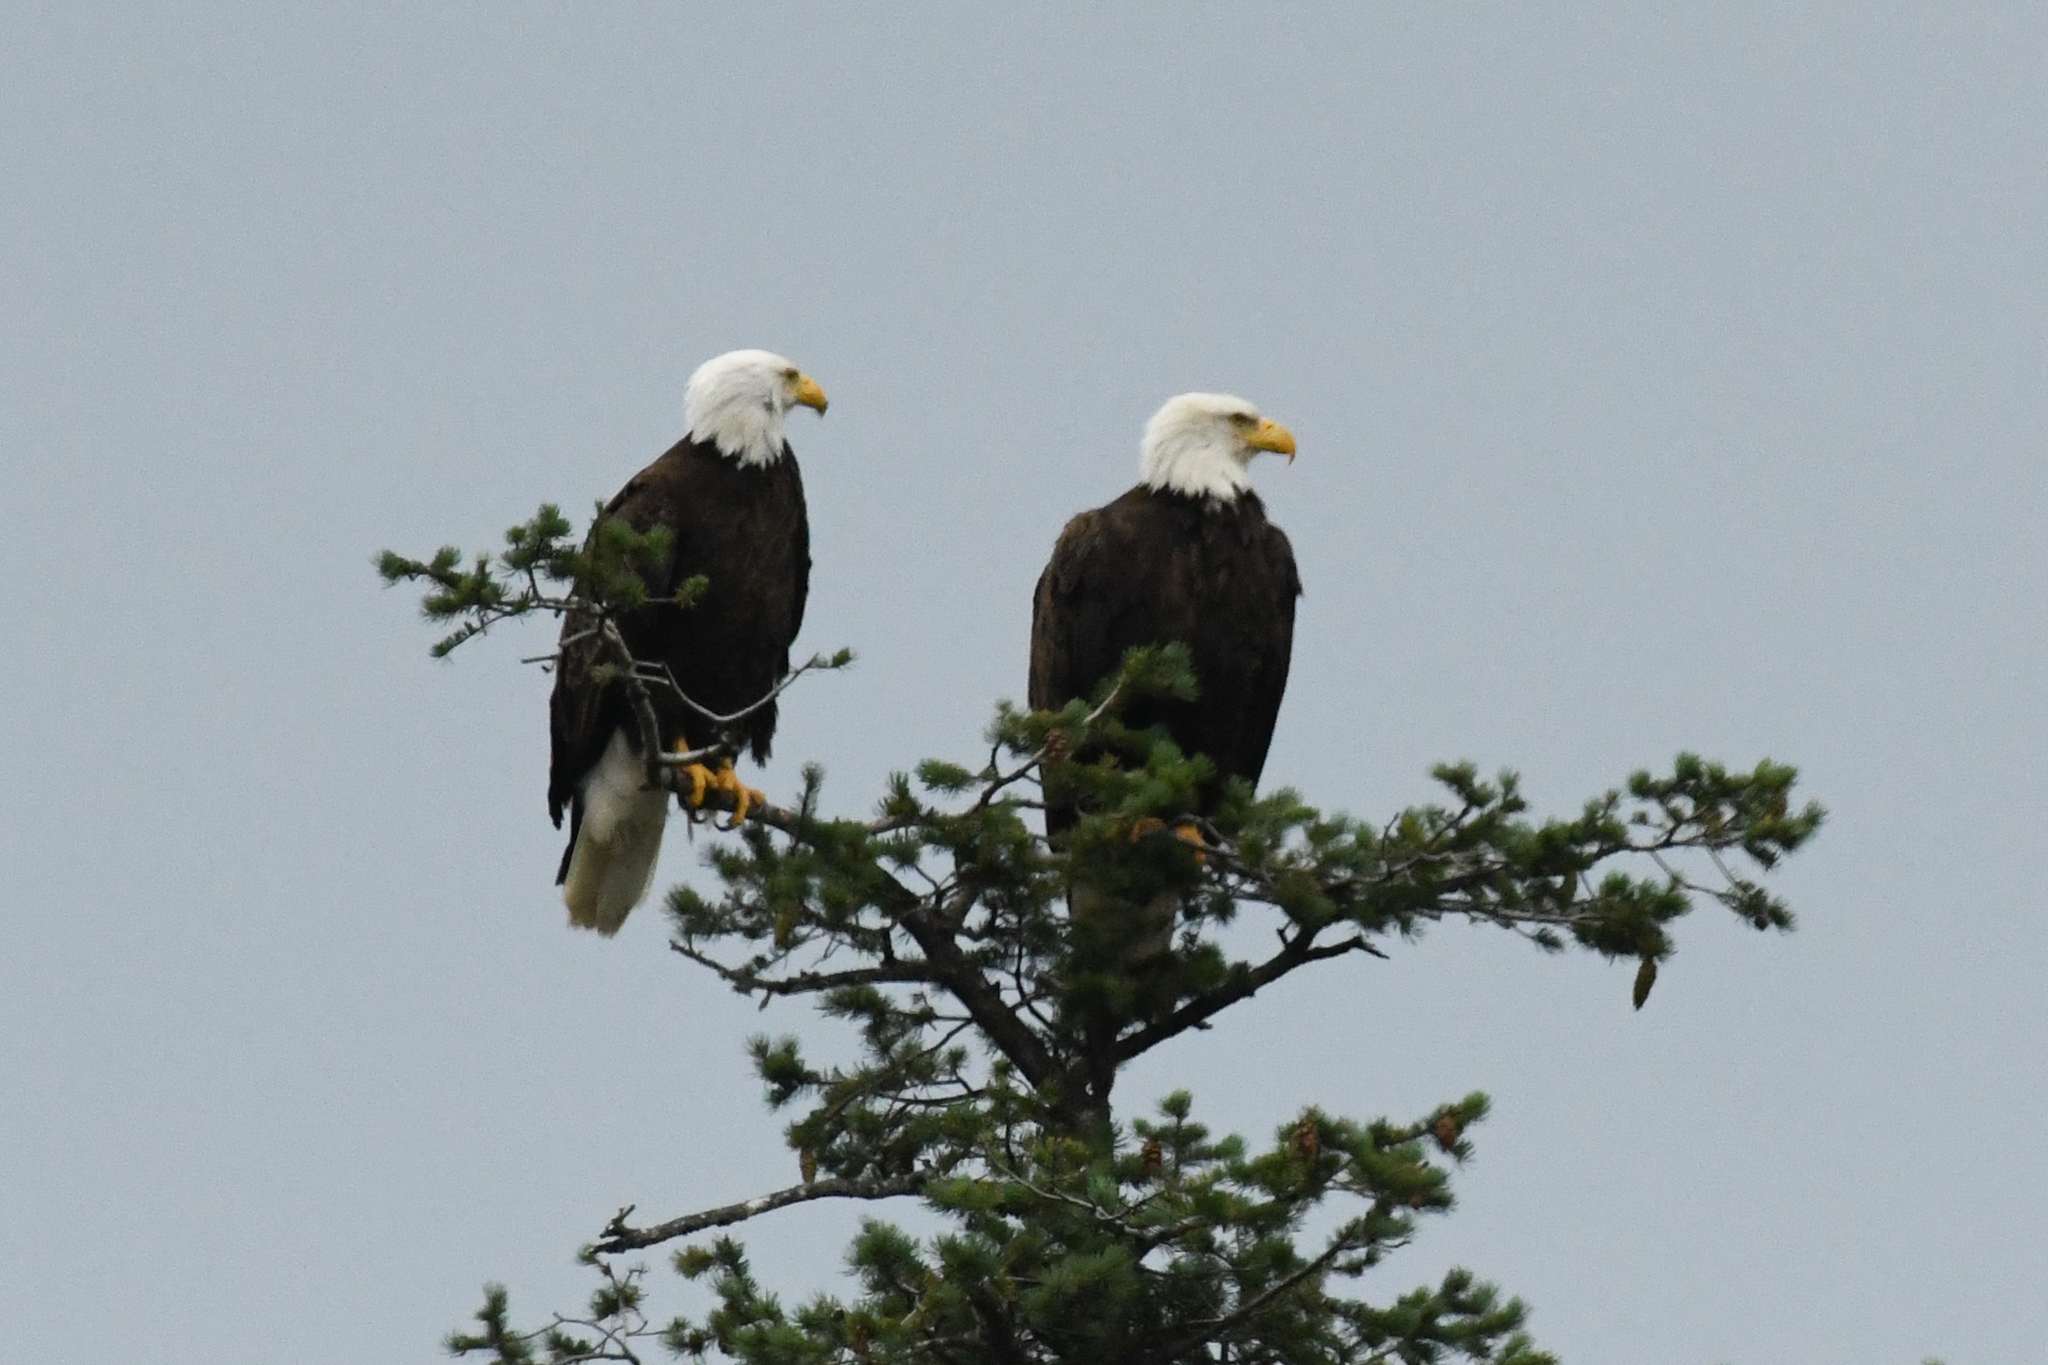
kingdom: Animalia
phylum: Chordata
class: Aves
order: Accipitriformes
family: Accipitridae
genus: Haliaeetus
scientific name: Haliaeetus leucocephalus
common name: Bald eagle
